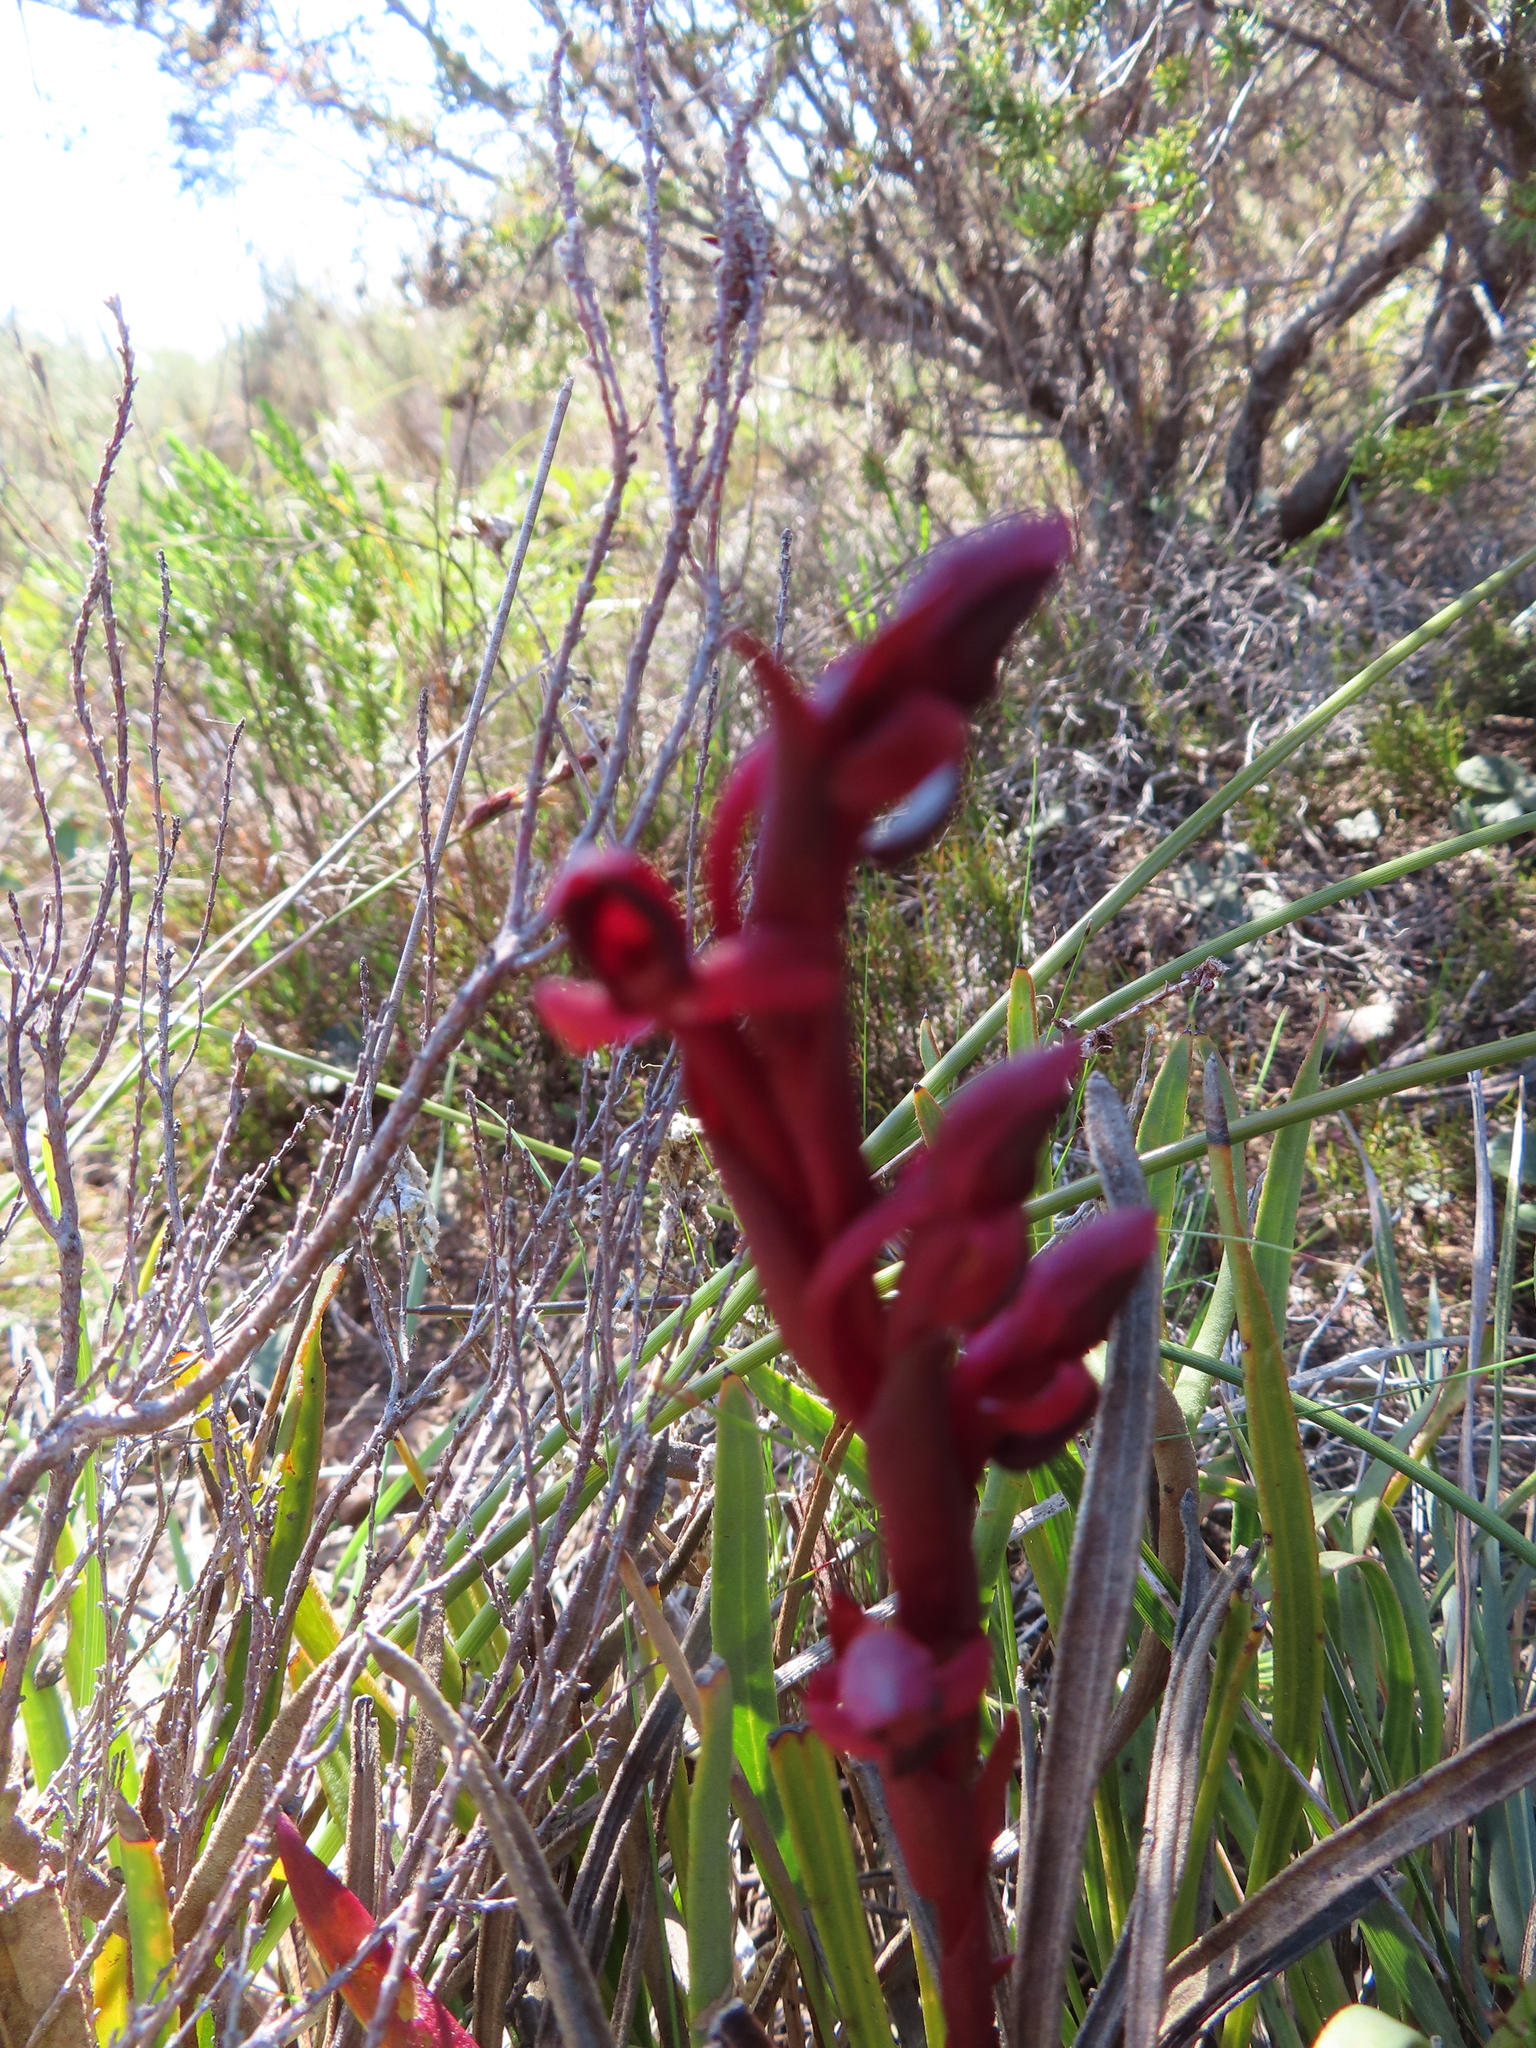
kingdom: Plantae
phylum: Tracheophyta
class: Liliopsida
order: Asparagales
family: Orchidaceae
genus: Disa
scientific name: Disa atrorubens
